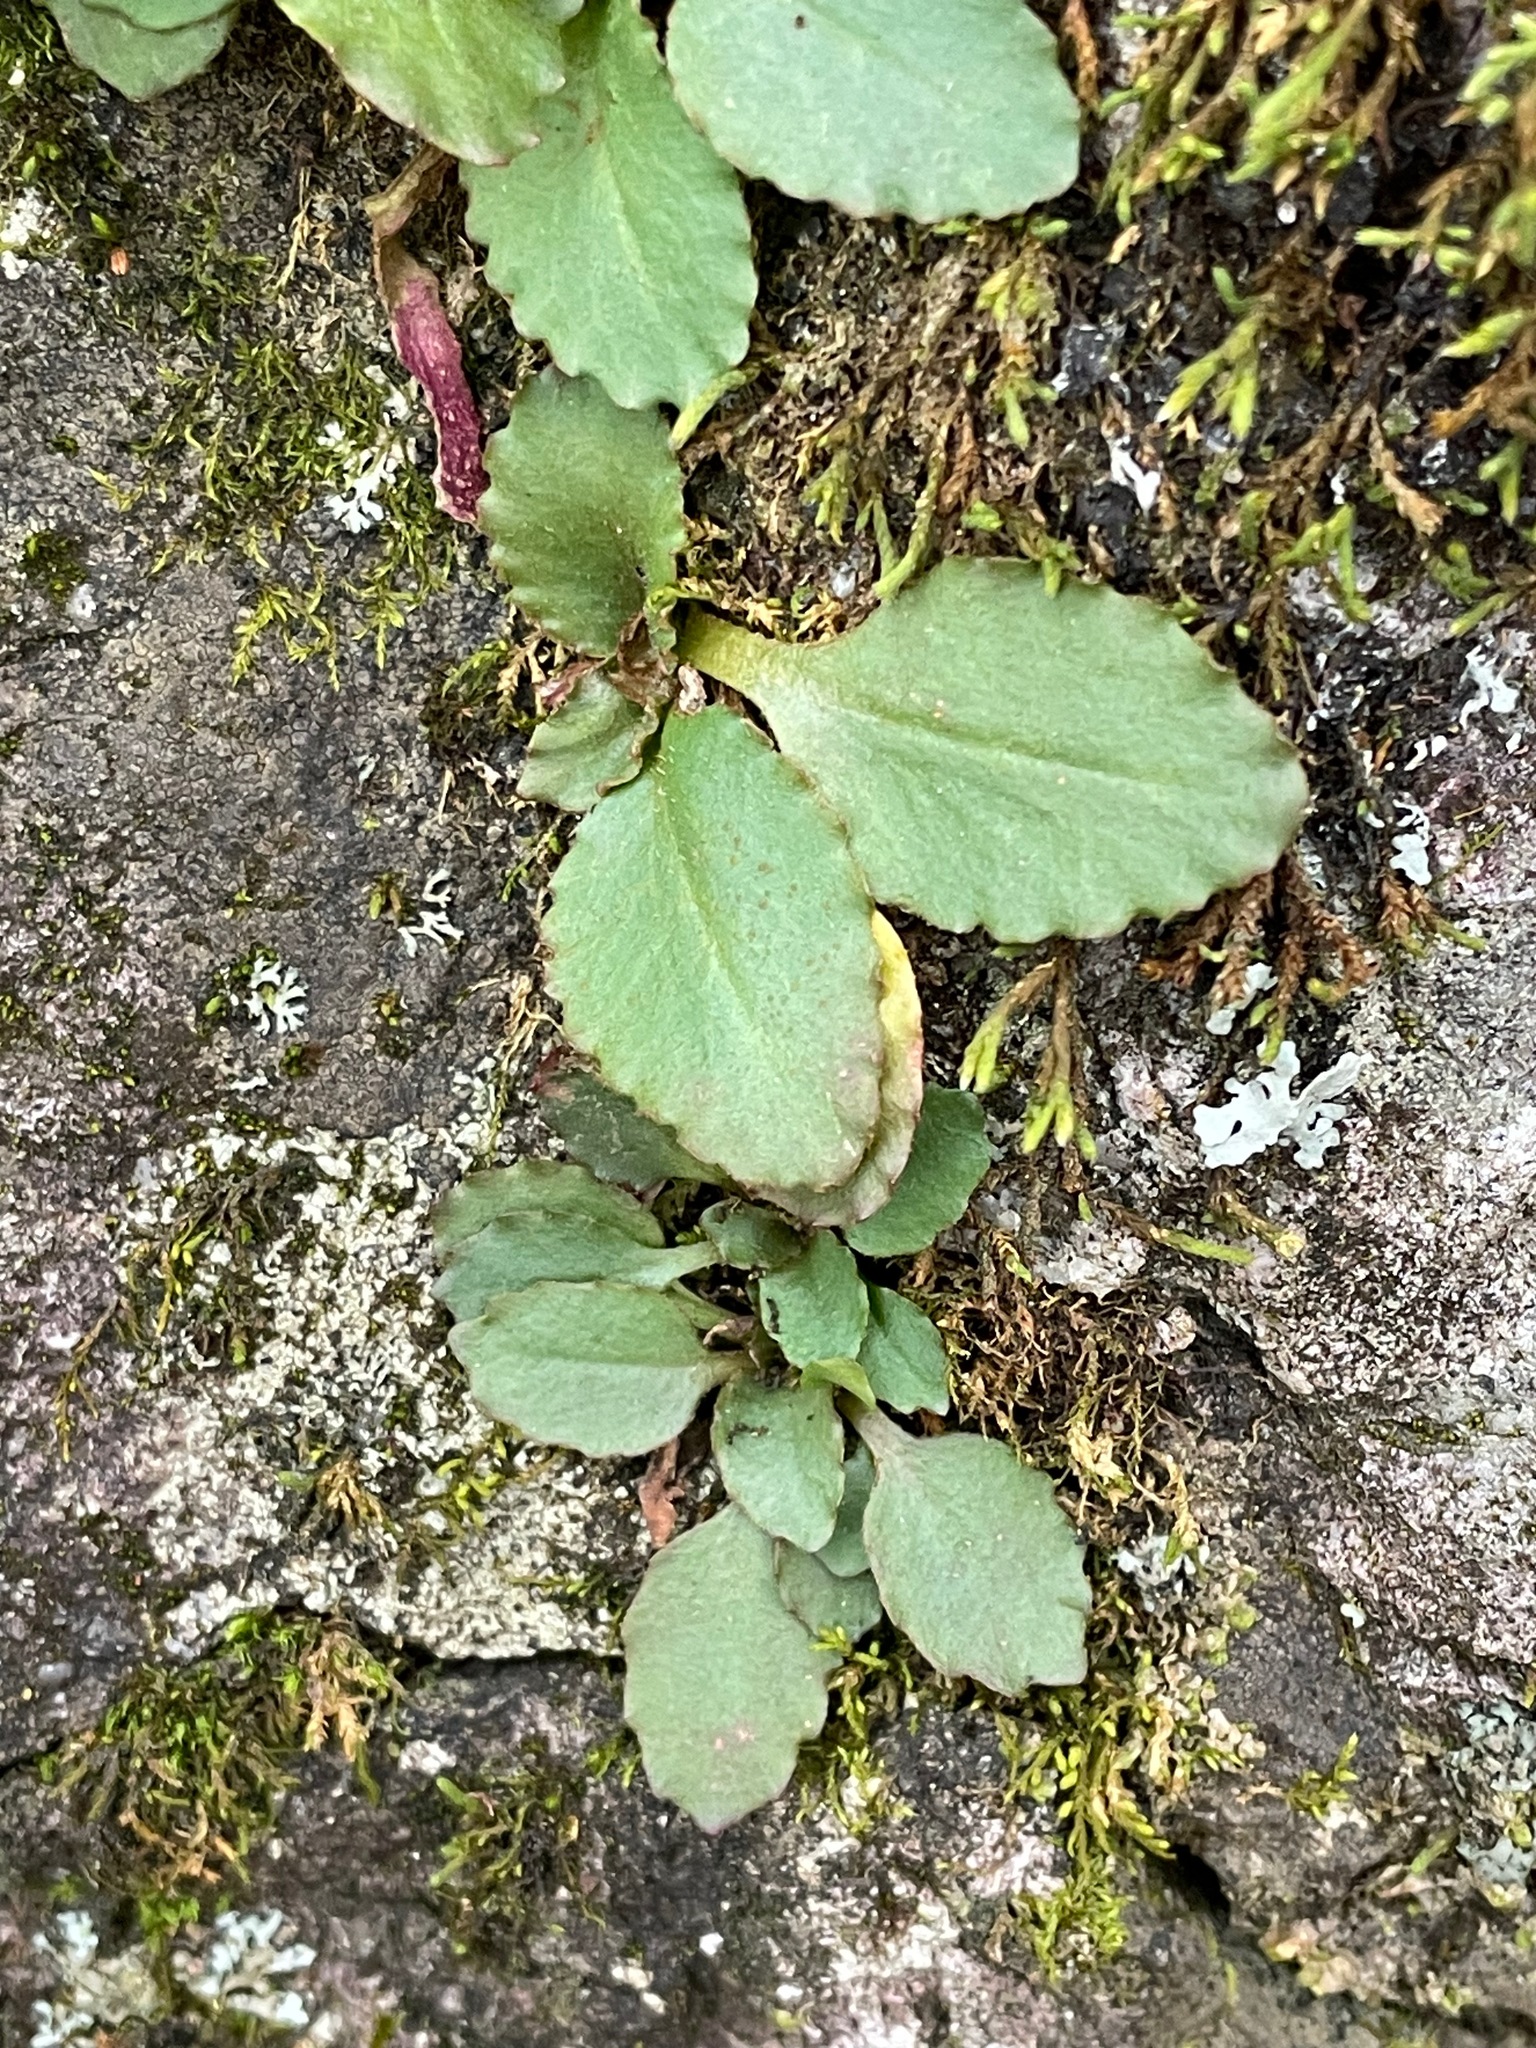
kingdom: Plantae
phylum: Tracheophyta
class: Magnoliopsida
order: Saxifragales
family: Saxifragaceae
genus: Micranthes
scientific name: Micranthes virginiensis
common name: Early saxifrage
